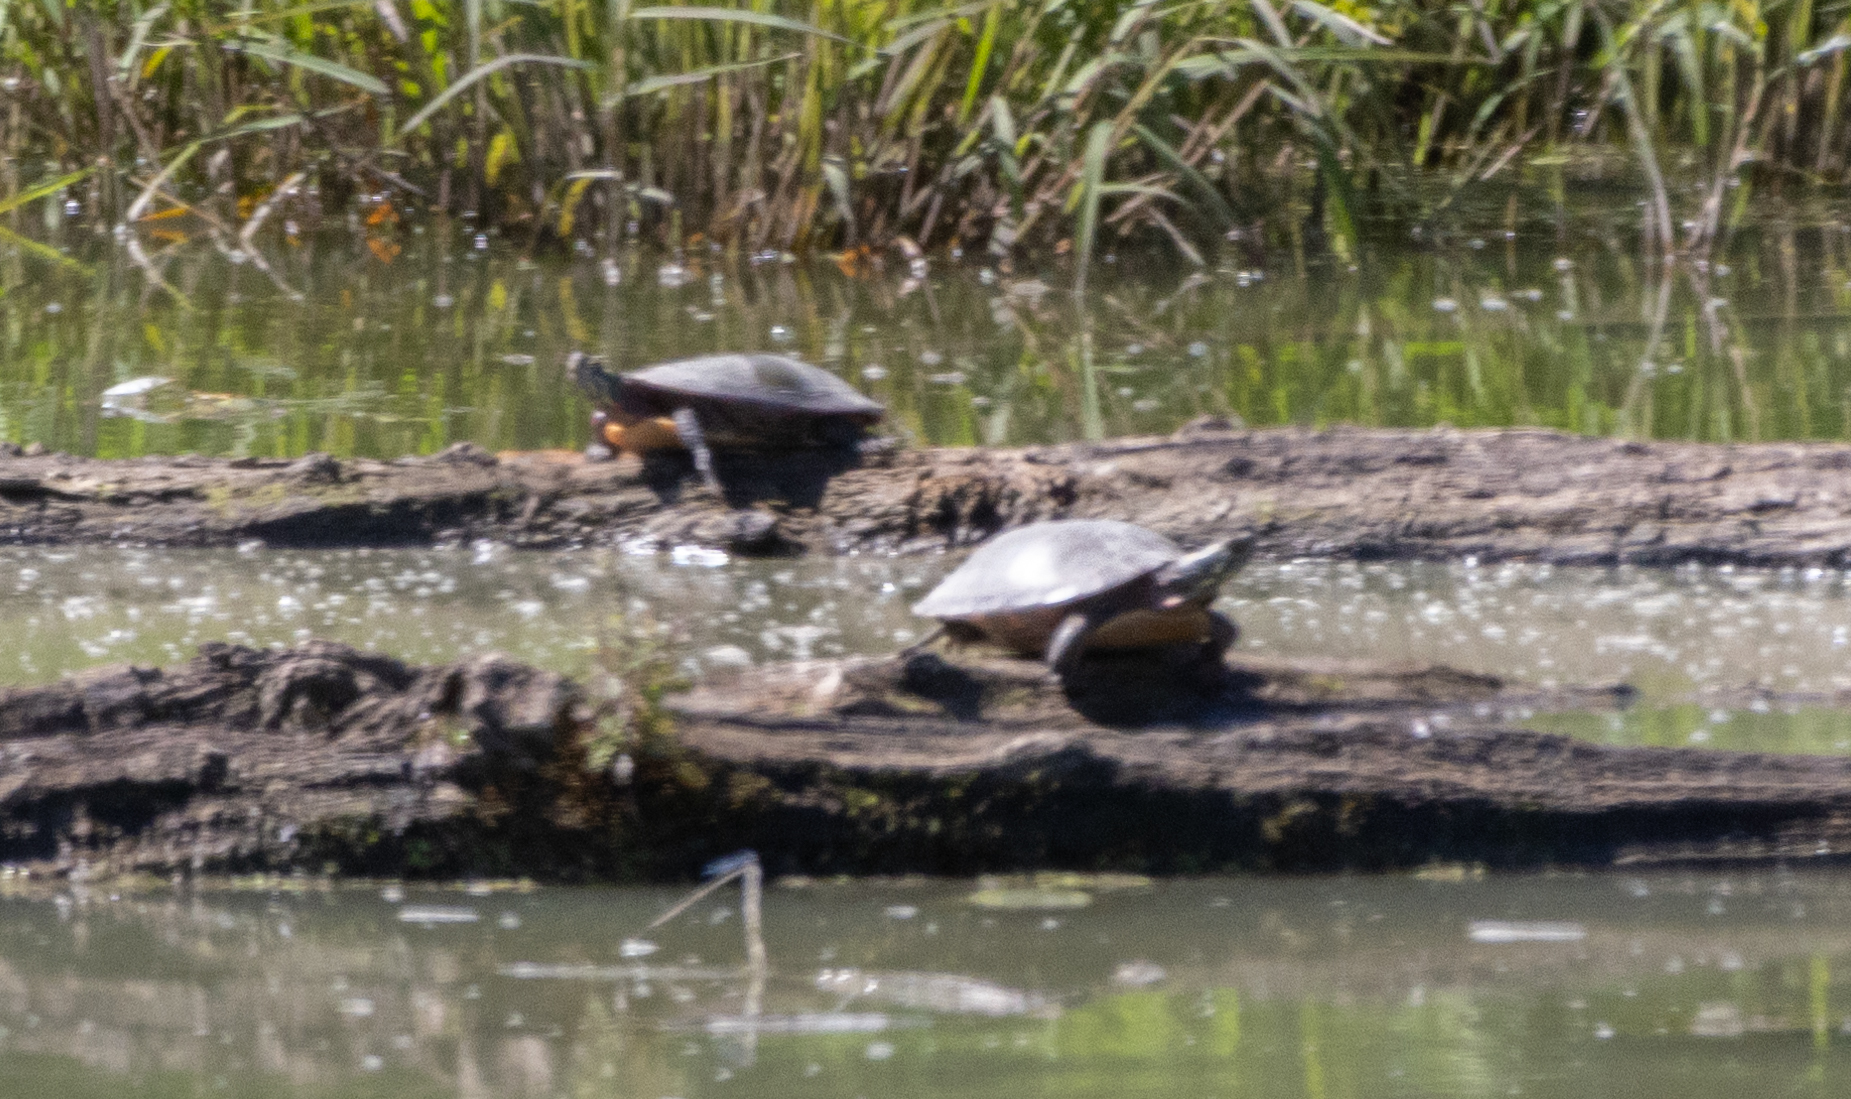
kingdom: Animalia
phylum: Chordata
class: Testudines
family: Emydidae
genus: Chrysemys
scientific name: Chrysemys picta
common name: Painted turtle
